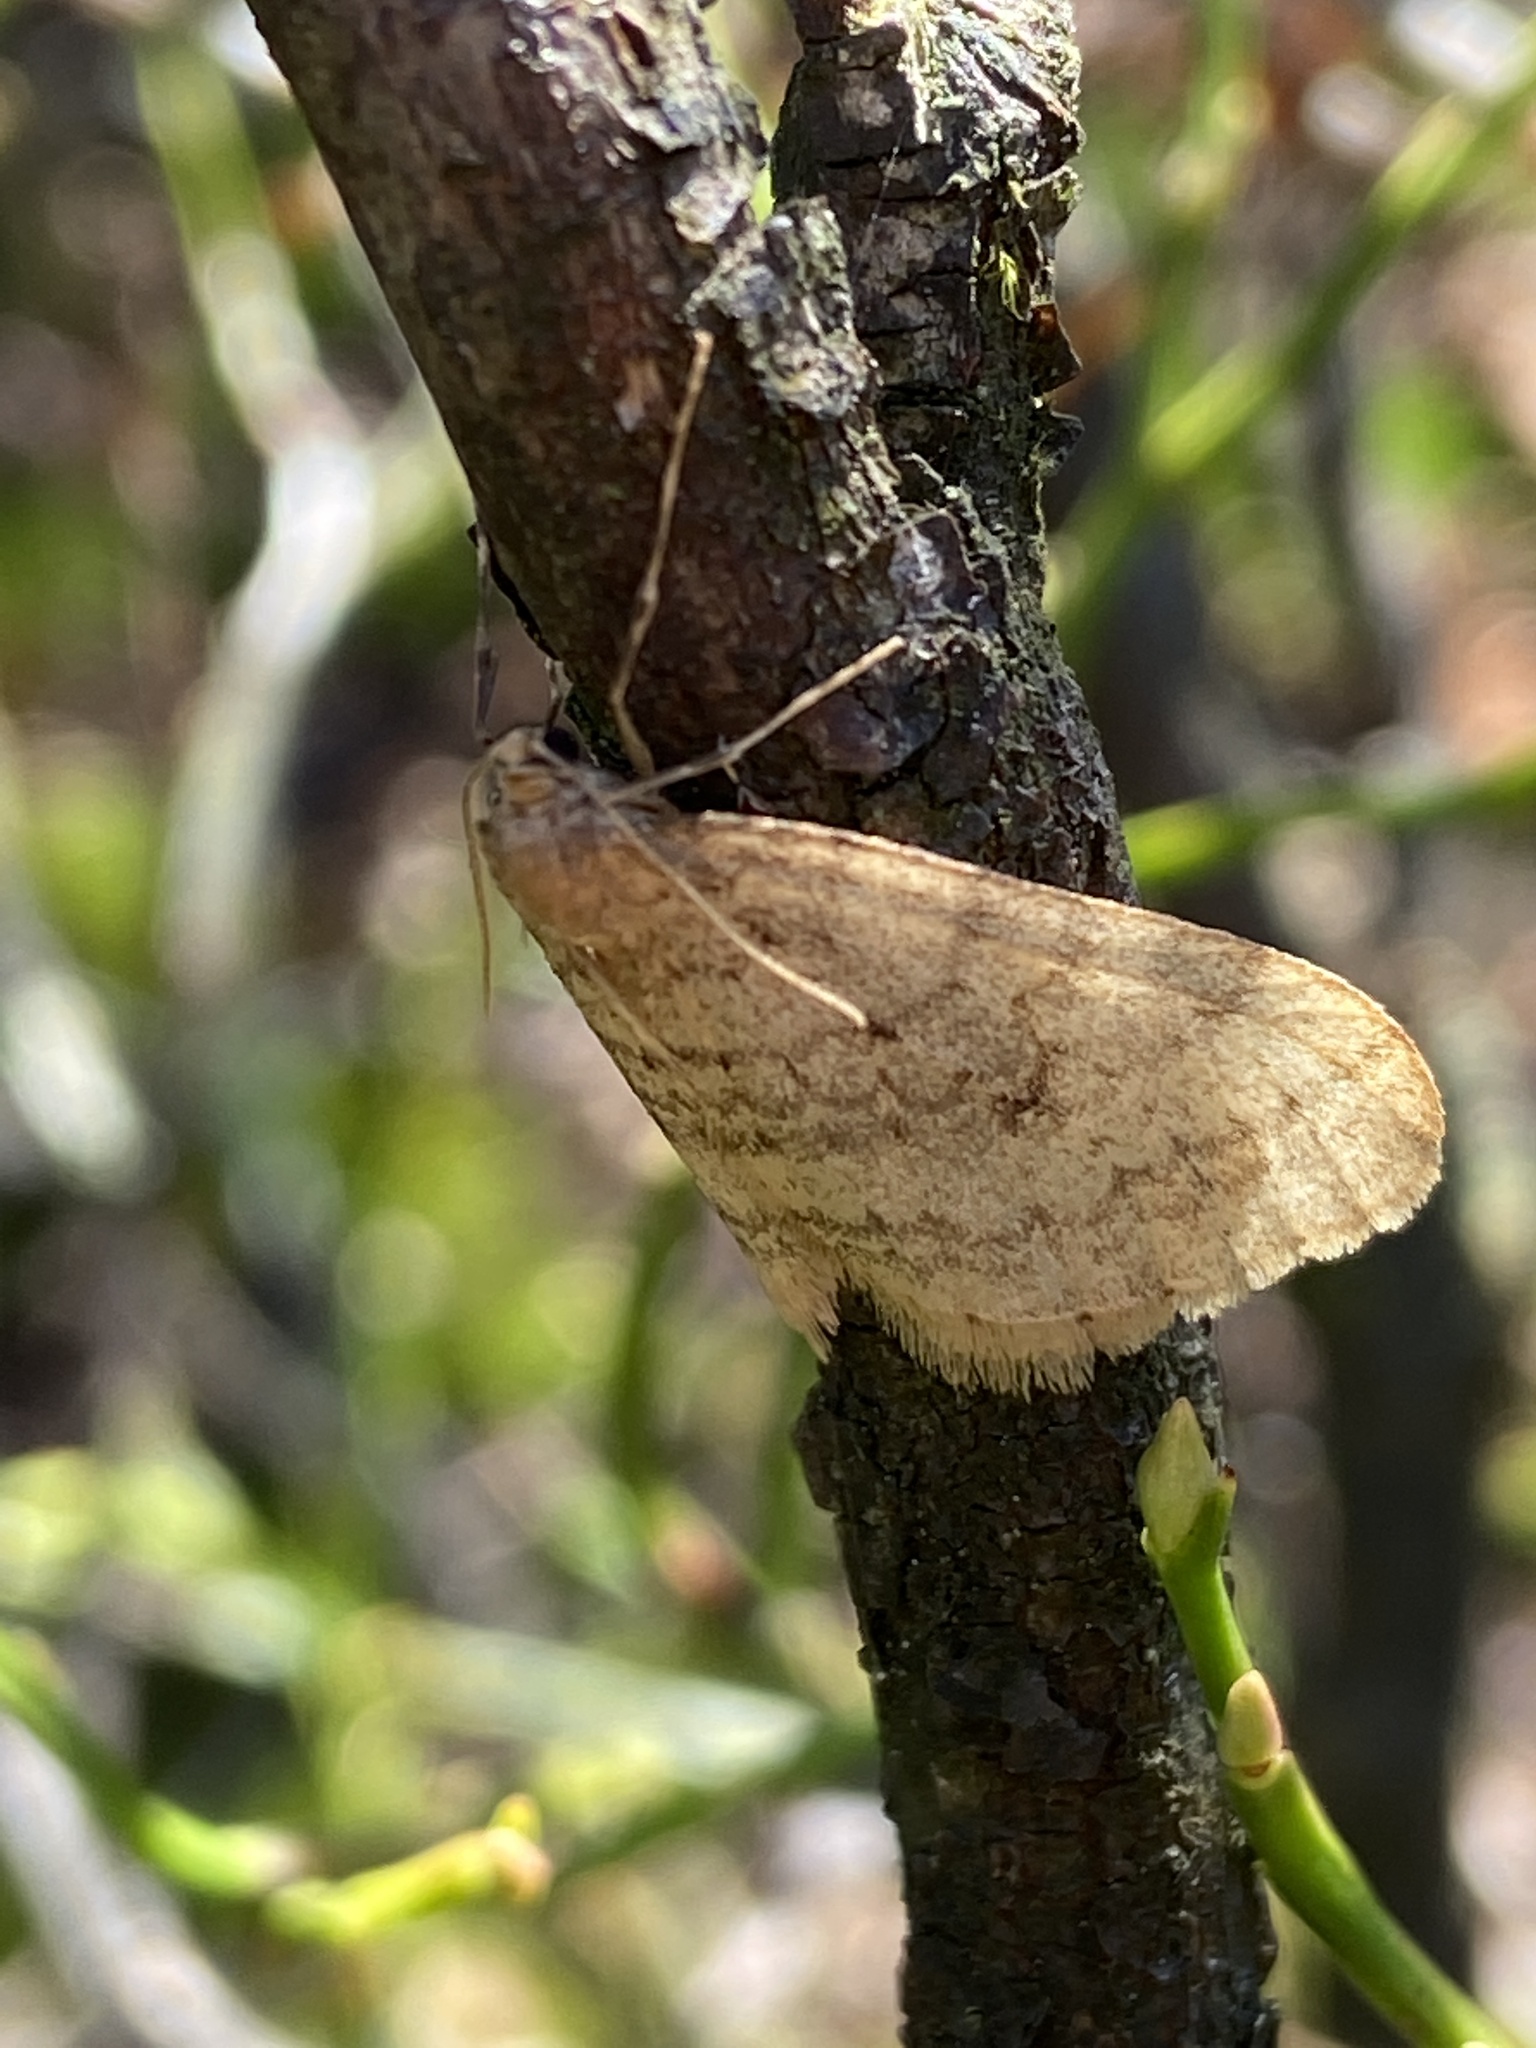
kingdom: Animalia
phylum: Arthropoda
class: Insecta
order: Lepidoptera
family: Geometridae
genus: Operophtera
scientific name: Operophtera brumata
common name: Winter moth
